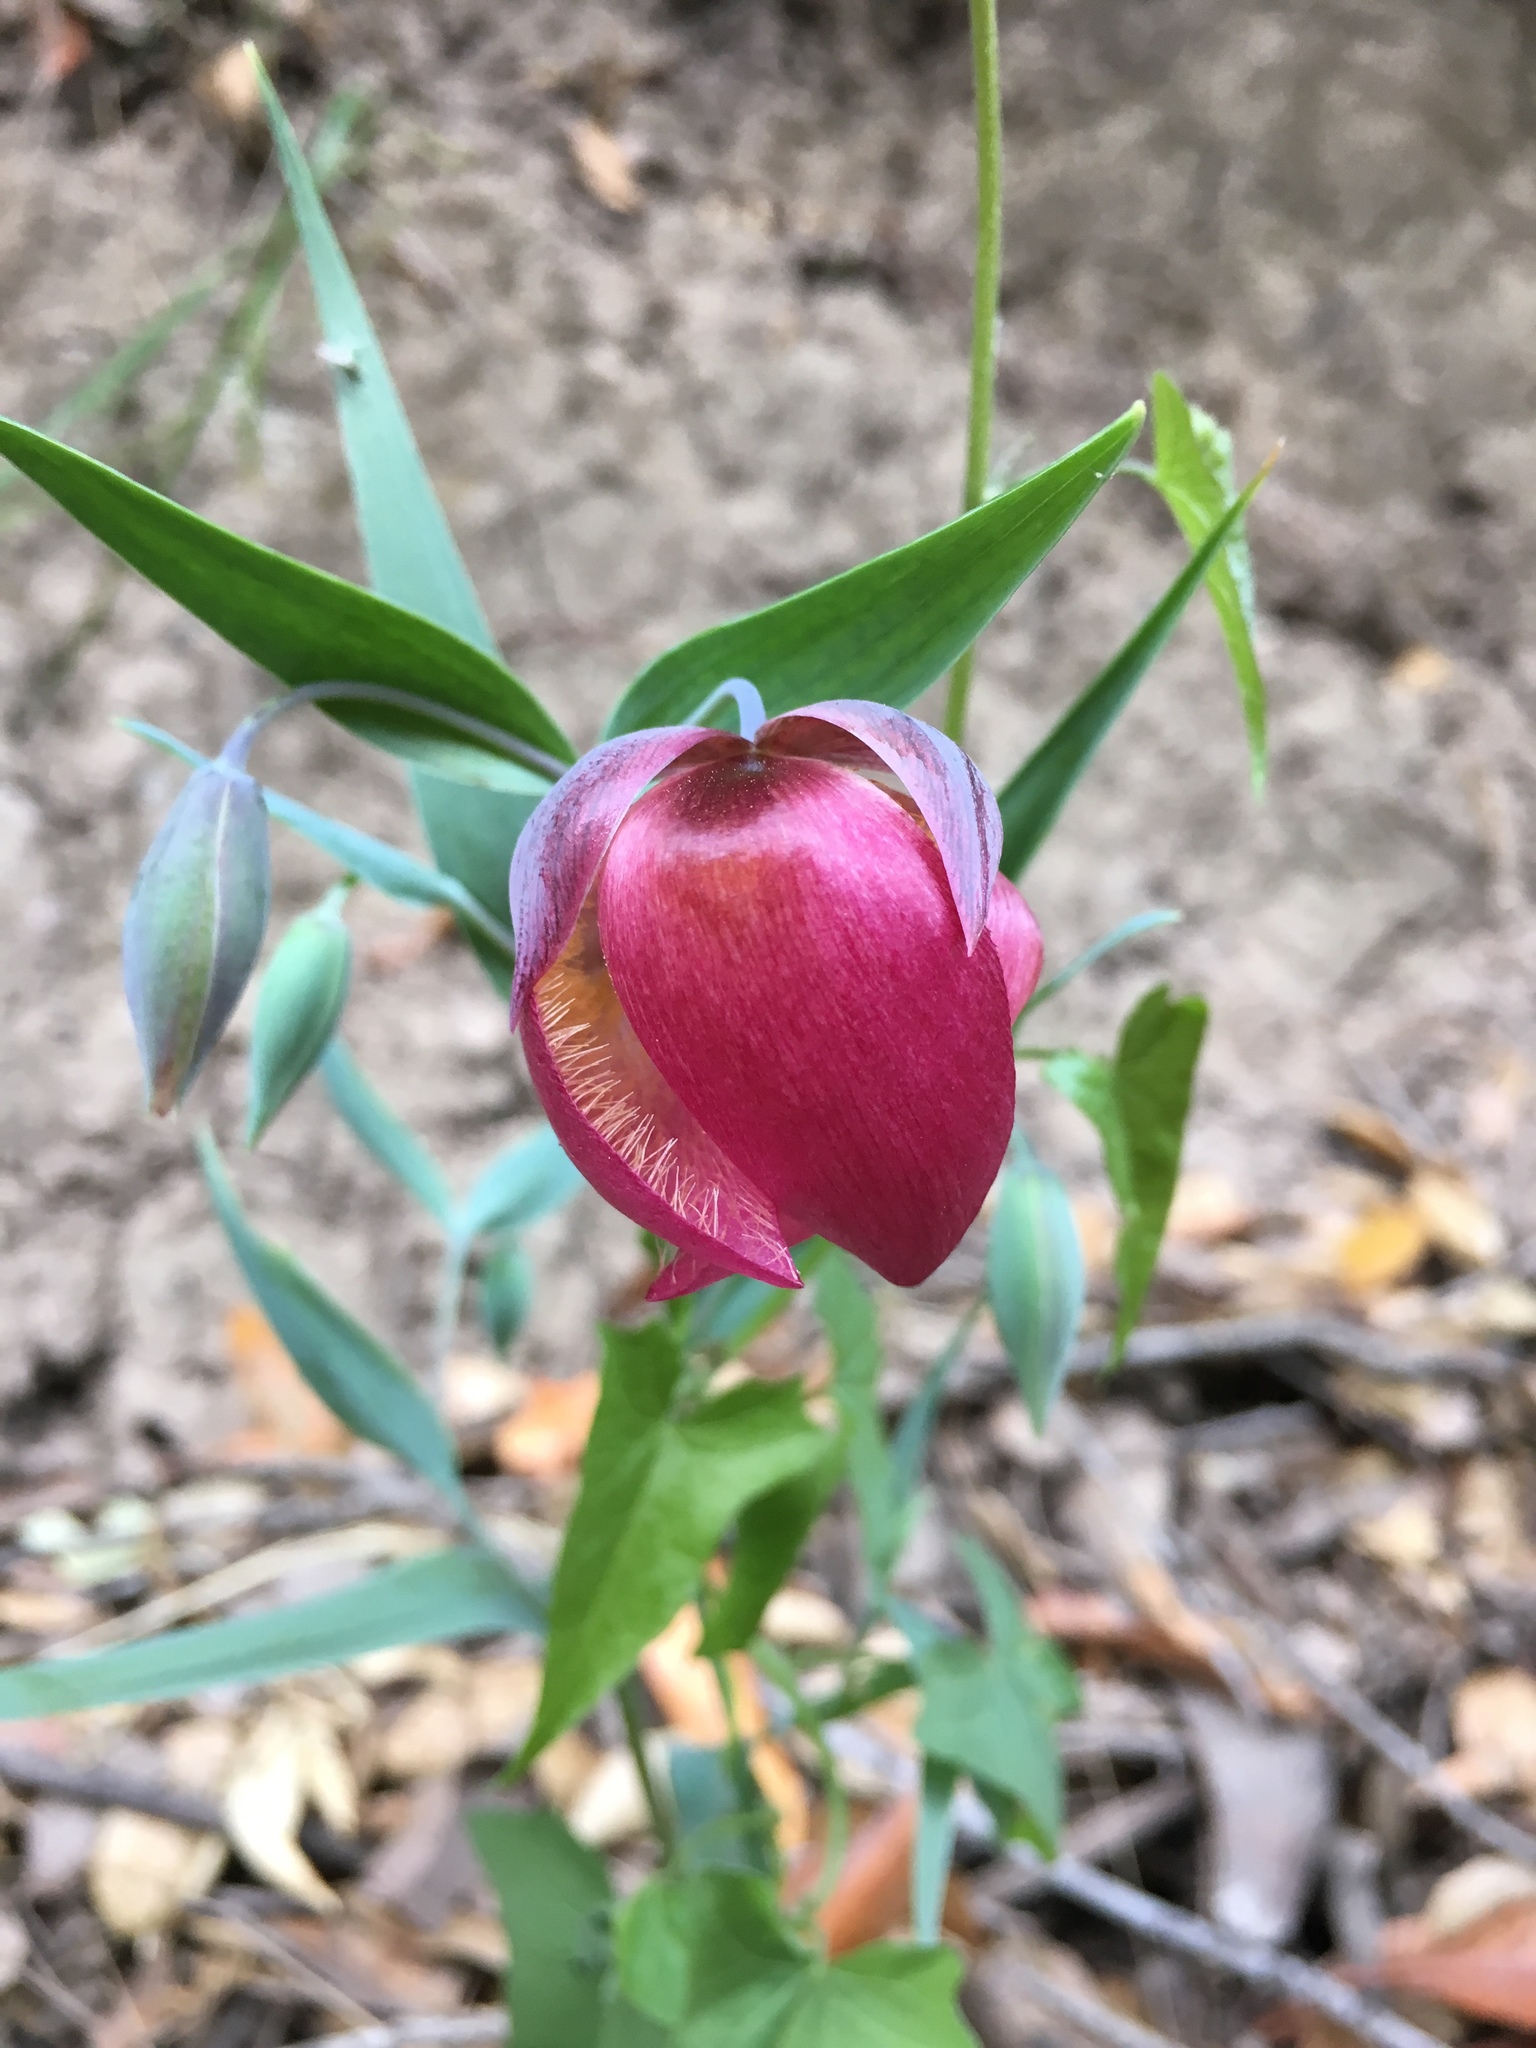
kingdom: Plantae
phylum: Tracheophyta
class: Liliopsida
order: Liliales
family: Liliaceae
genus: Calochortus
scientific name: Calochortus albus
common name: Fairy-lantern
